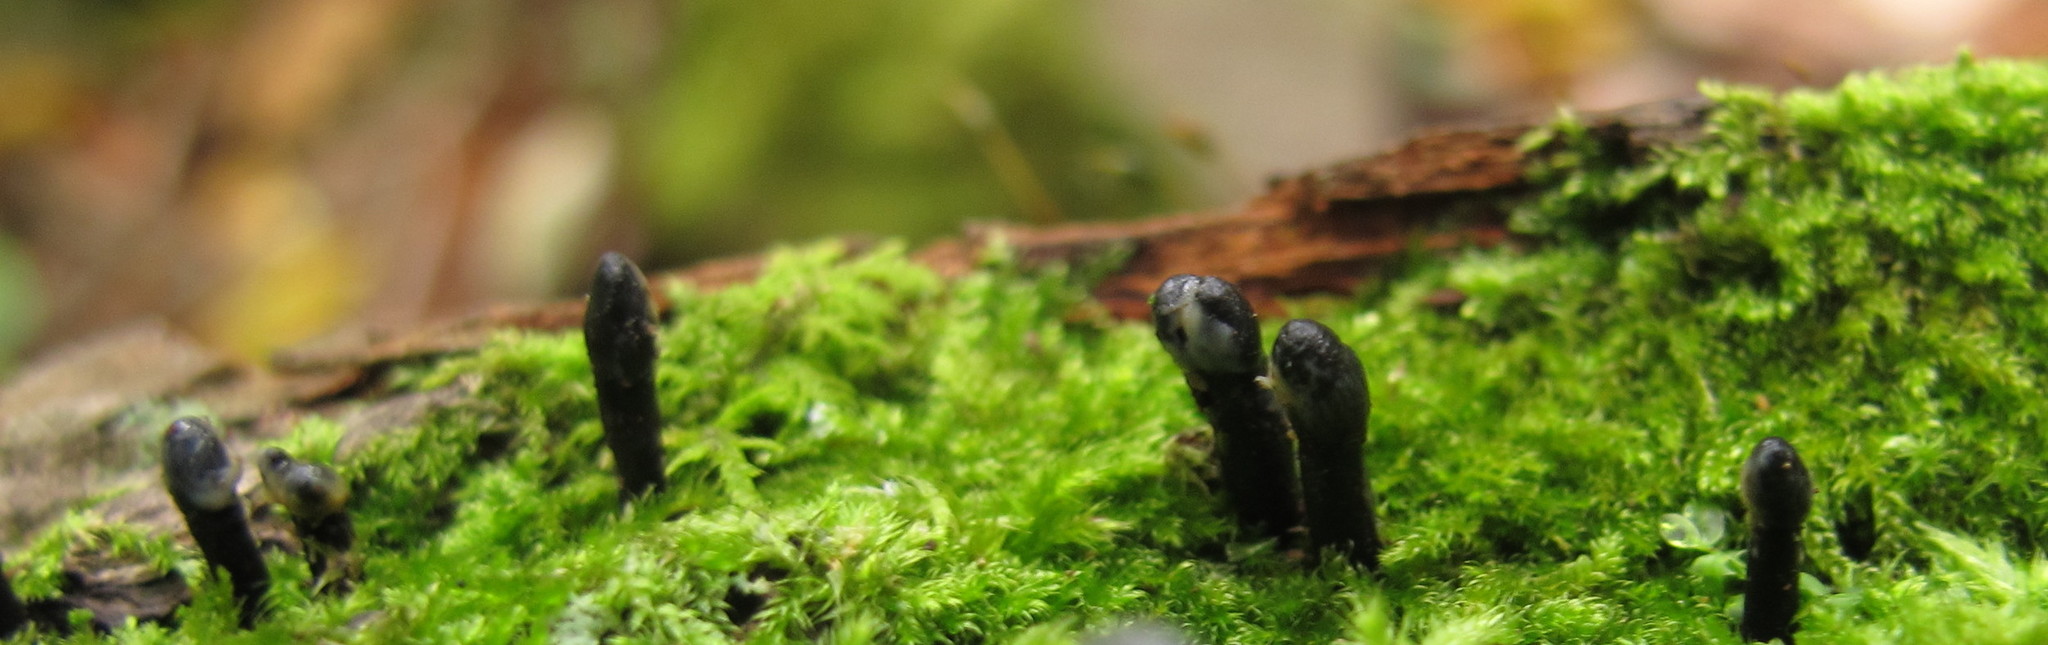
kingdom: Fungi
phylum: Ascomycota
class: Leotiomycetes
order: Helotiales
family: Bulgariaceae
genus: Holwaya
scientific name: Holwaya mucida
